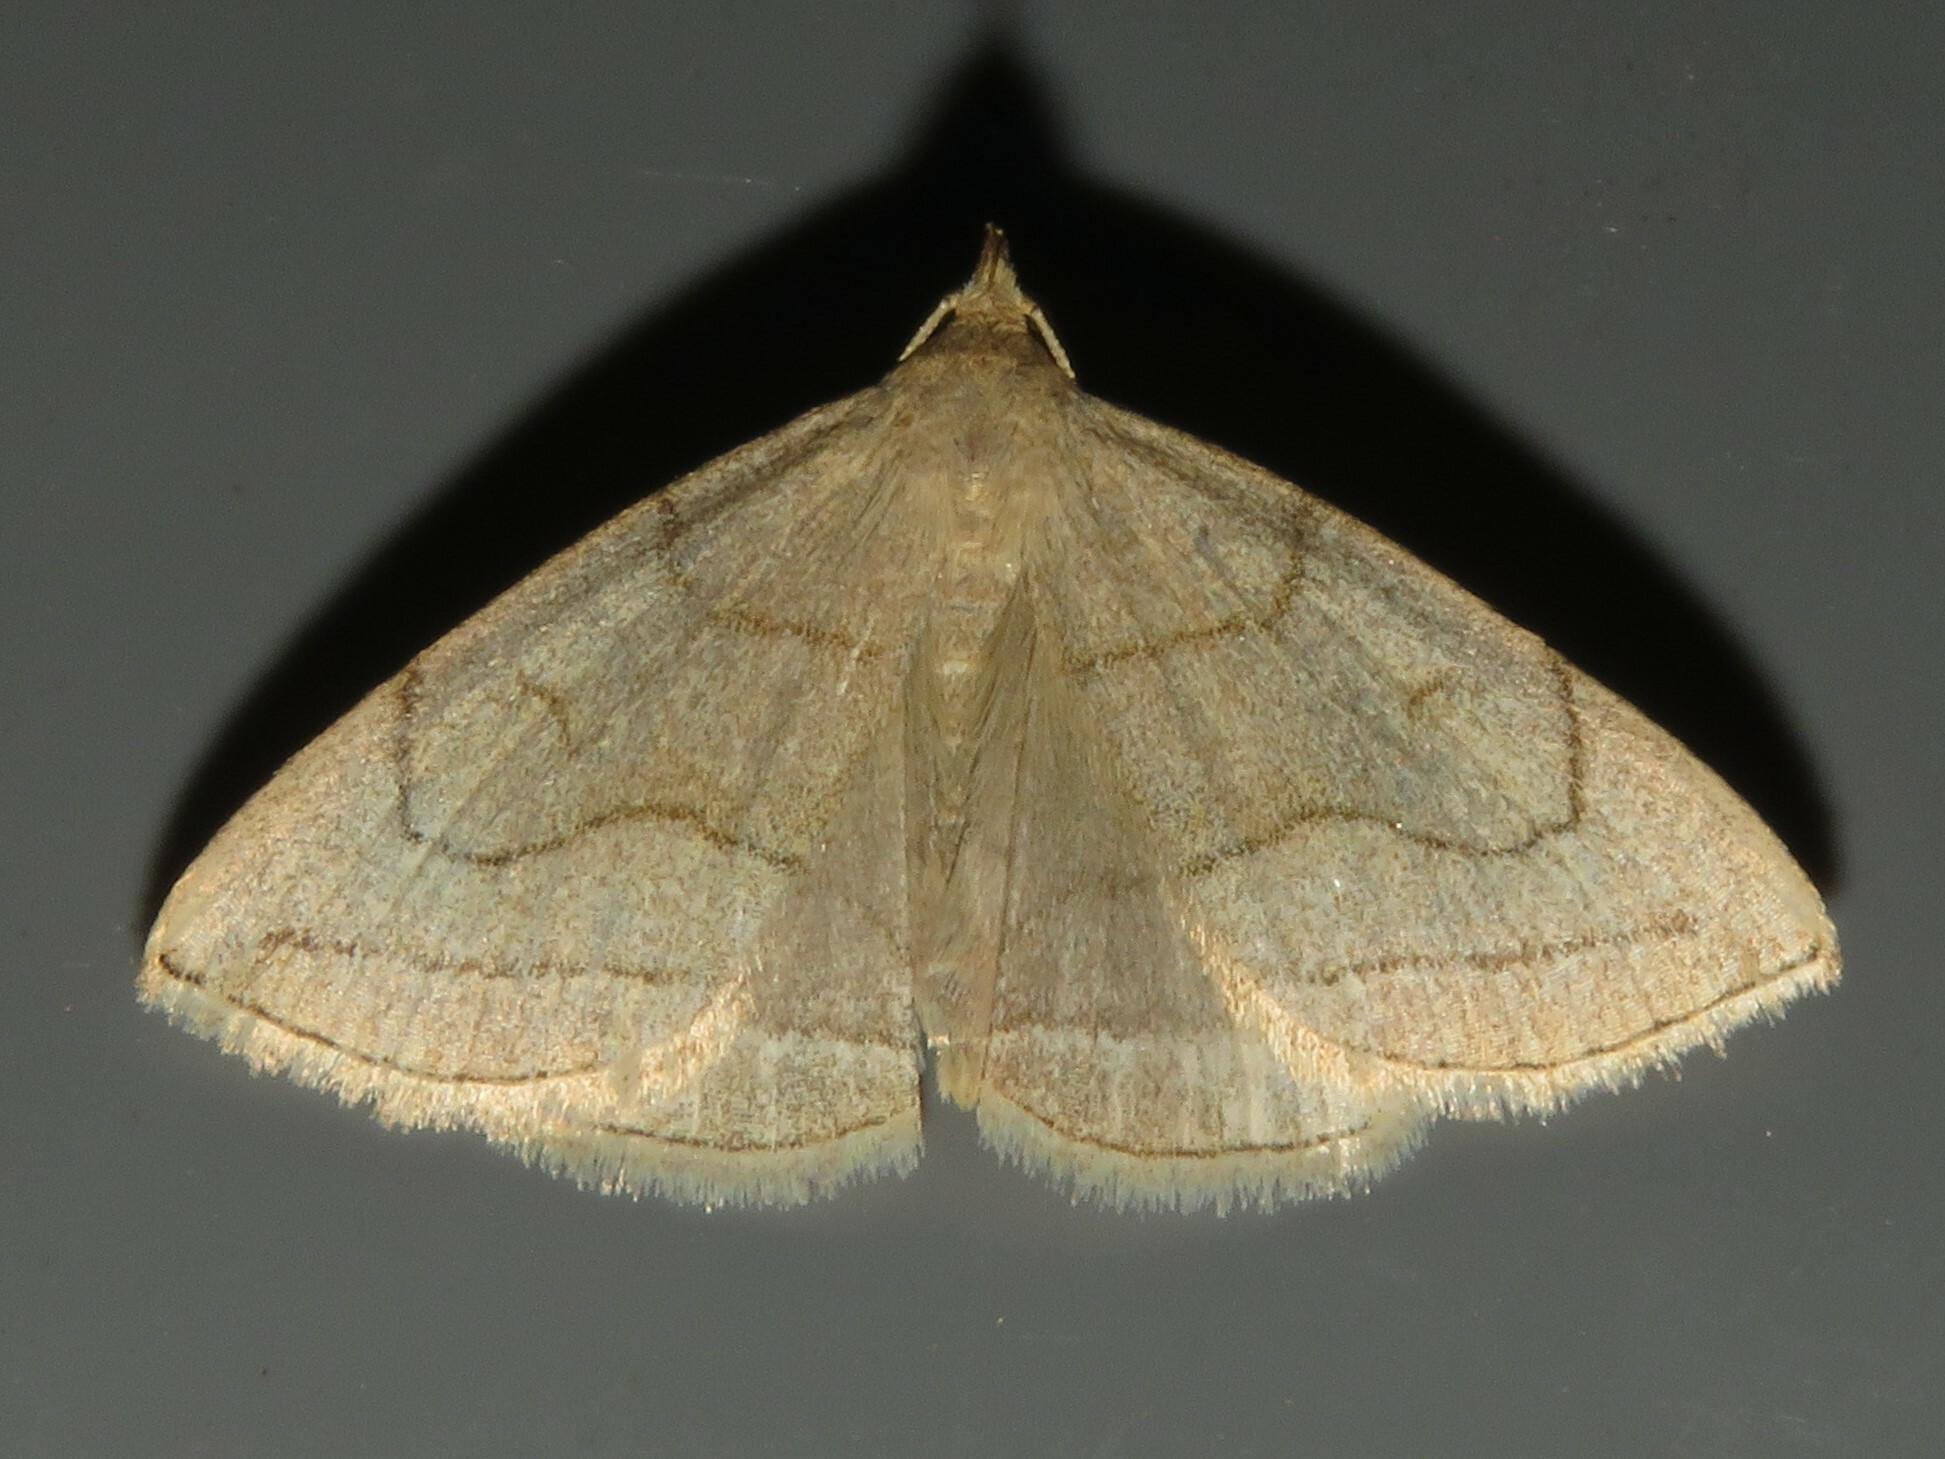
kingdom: Animalia
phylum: Arthropoda
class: Insecta
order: Lepidoptera
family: Erebidae
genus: Zanclognatha
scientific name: Zanclognatha pedipilalis
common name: Grayish fan-foot
